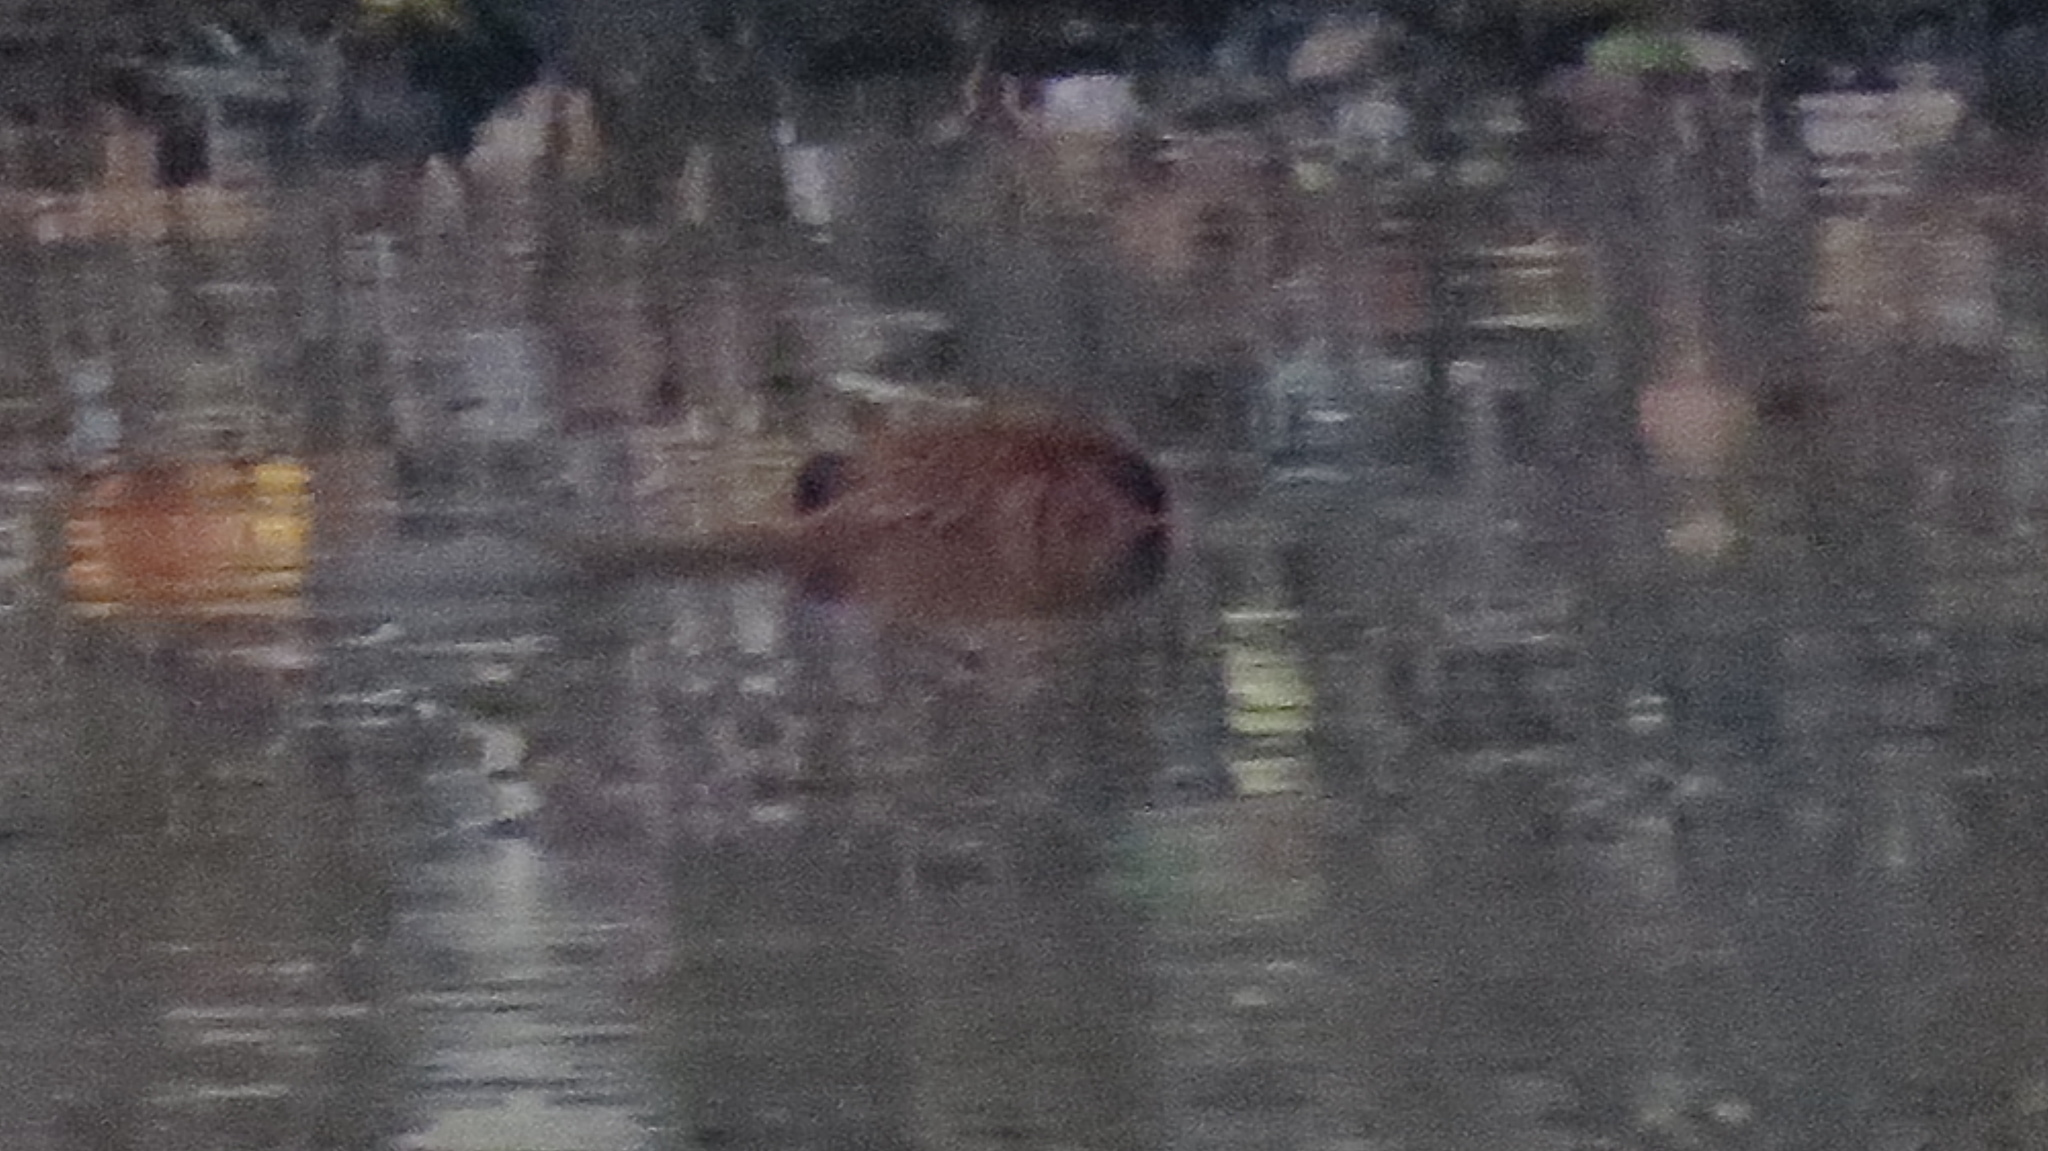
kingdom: Animalia
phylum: Chordata
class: Mammalia
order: Rodentia
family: Castoridae
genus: Castor
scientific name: Castor canadensis
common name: American beaver
